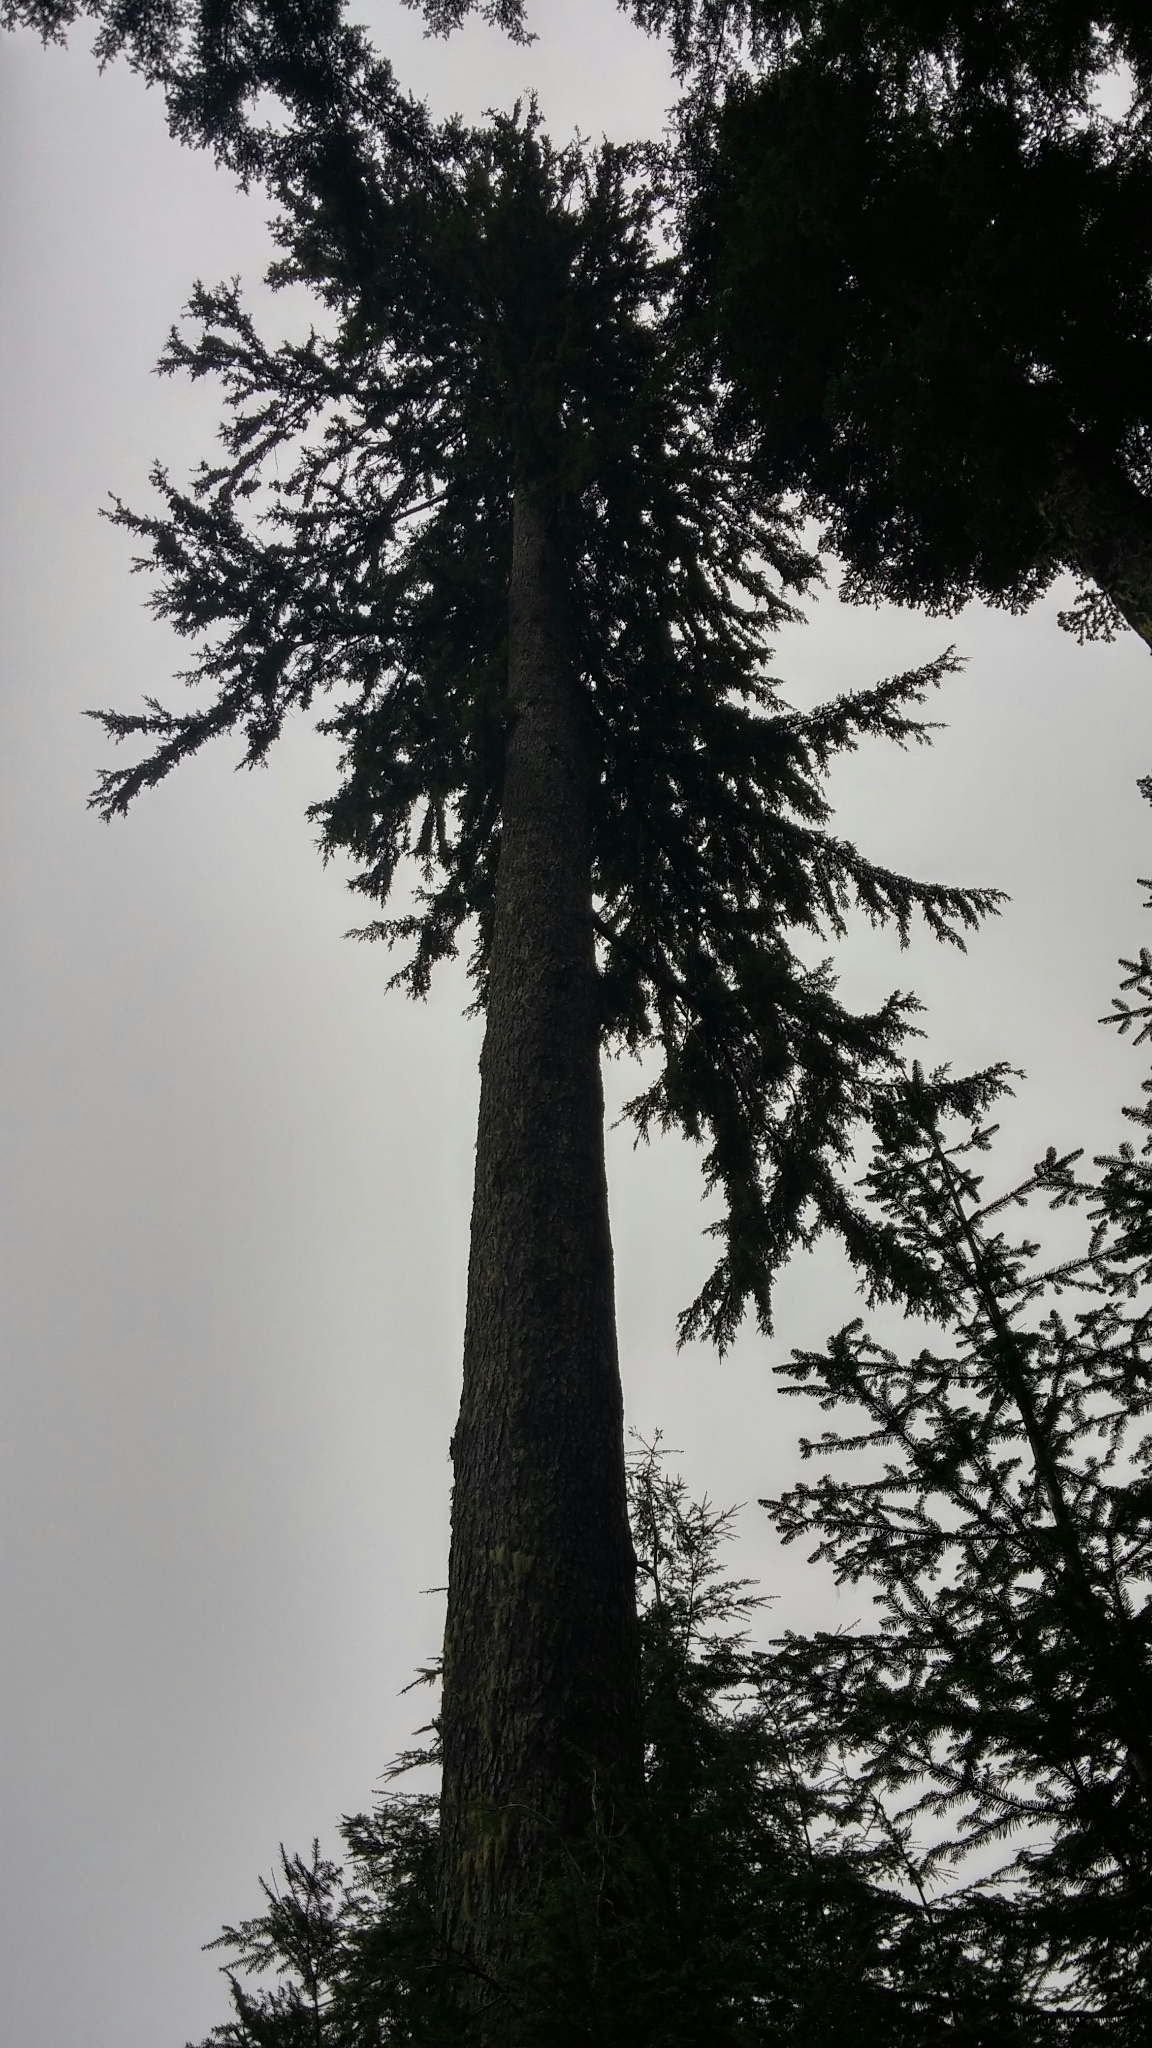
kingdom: Plantae
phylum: Tracheophyta
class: Pinopsida
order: Pinales
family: Pinaceae
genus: Tsuga
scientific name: Tsuga heterophylla
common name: Western hemlock
